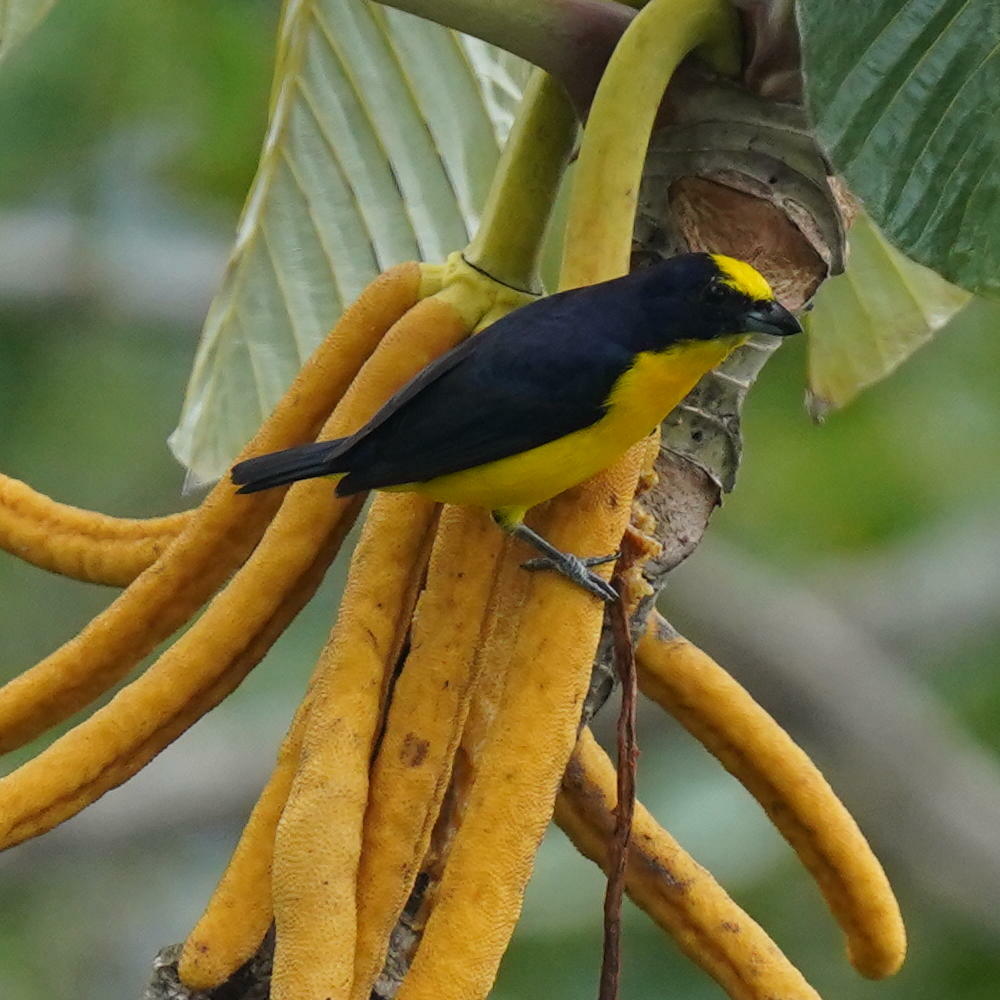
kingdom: Animalia
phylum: Chordata
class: Aves
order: Passeriformes
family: Fringillidae
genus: Euphonia
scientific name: Euphonia laniirostris
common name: Thick-billed euphonia
